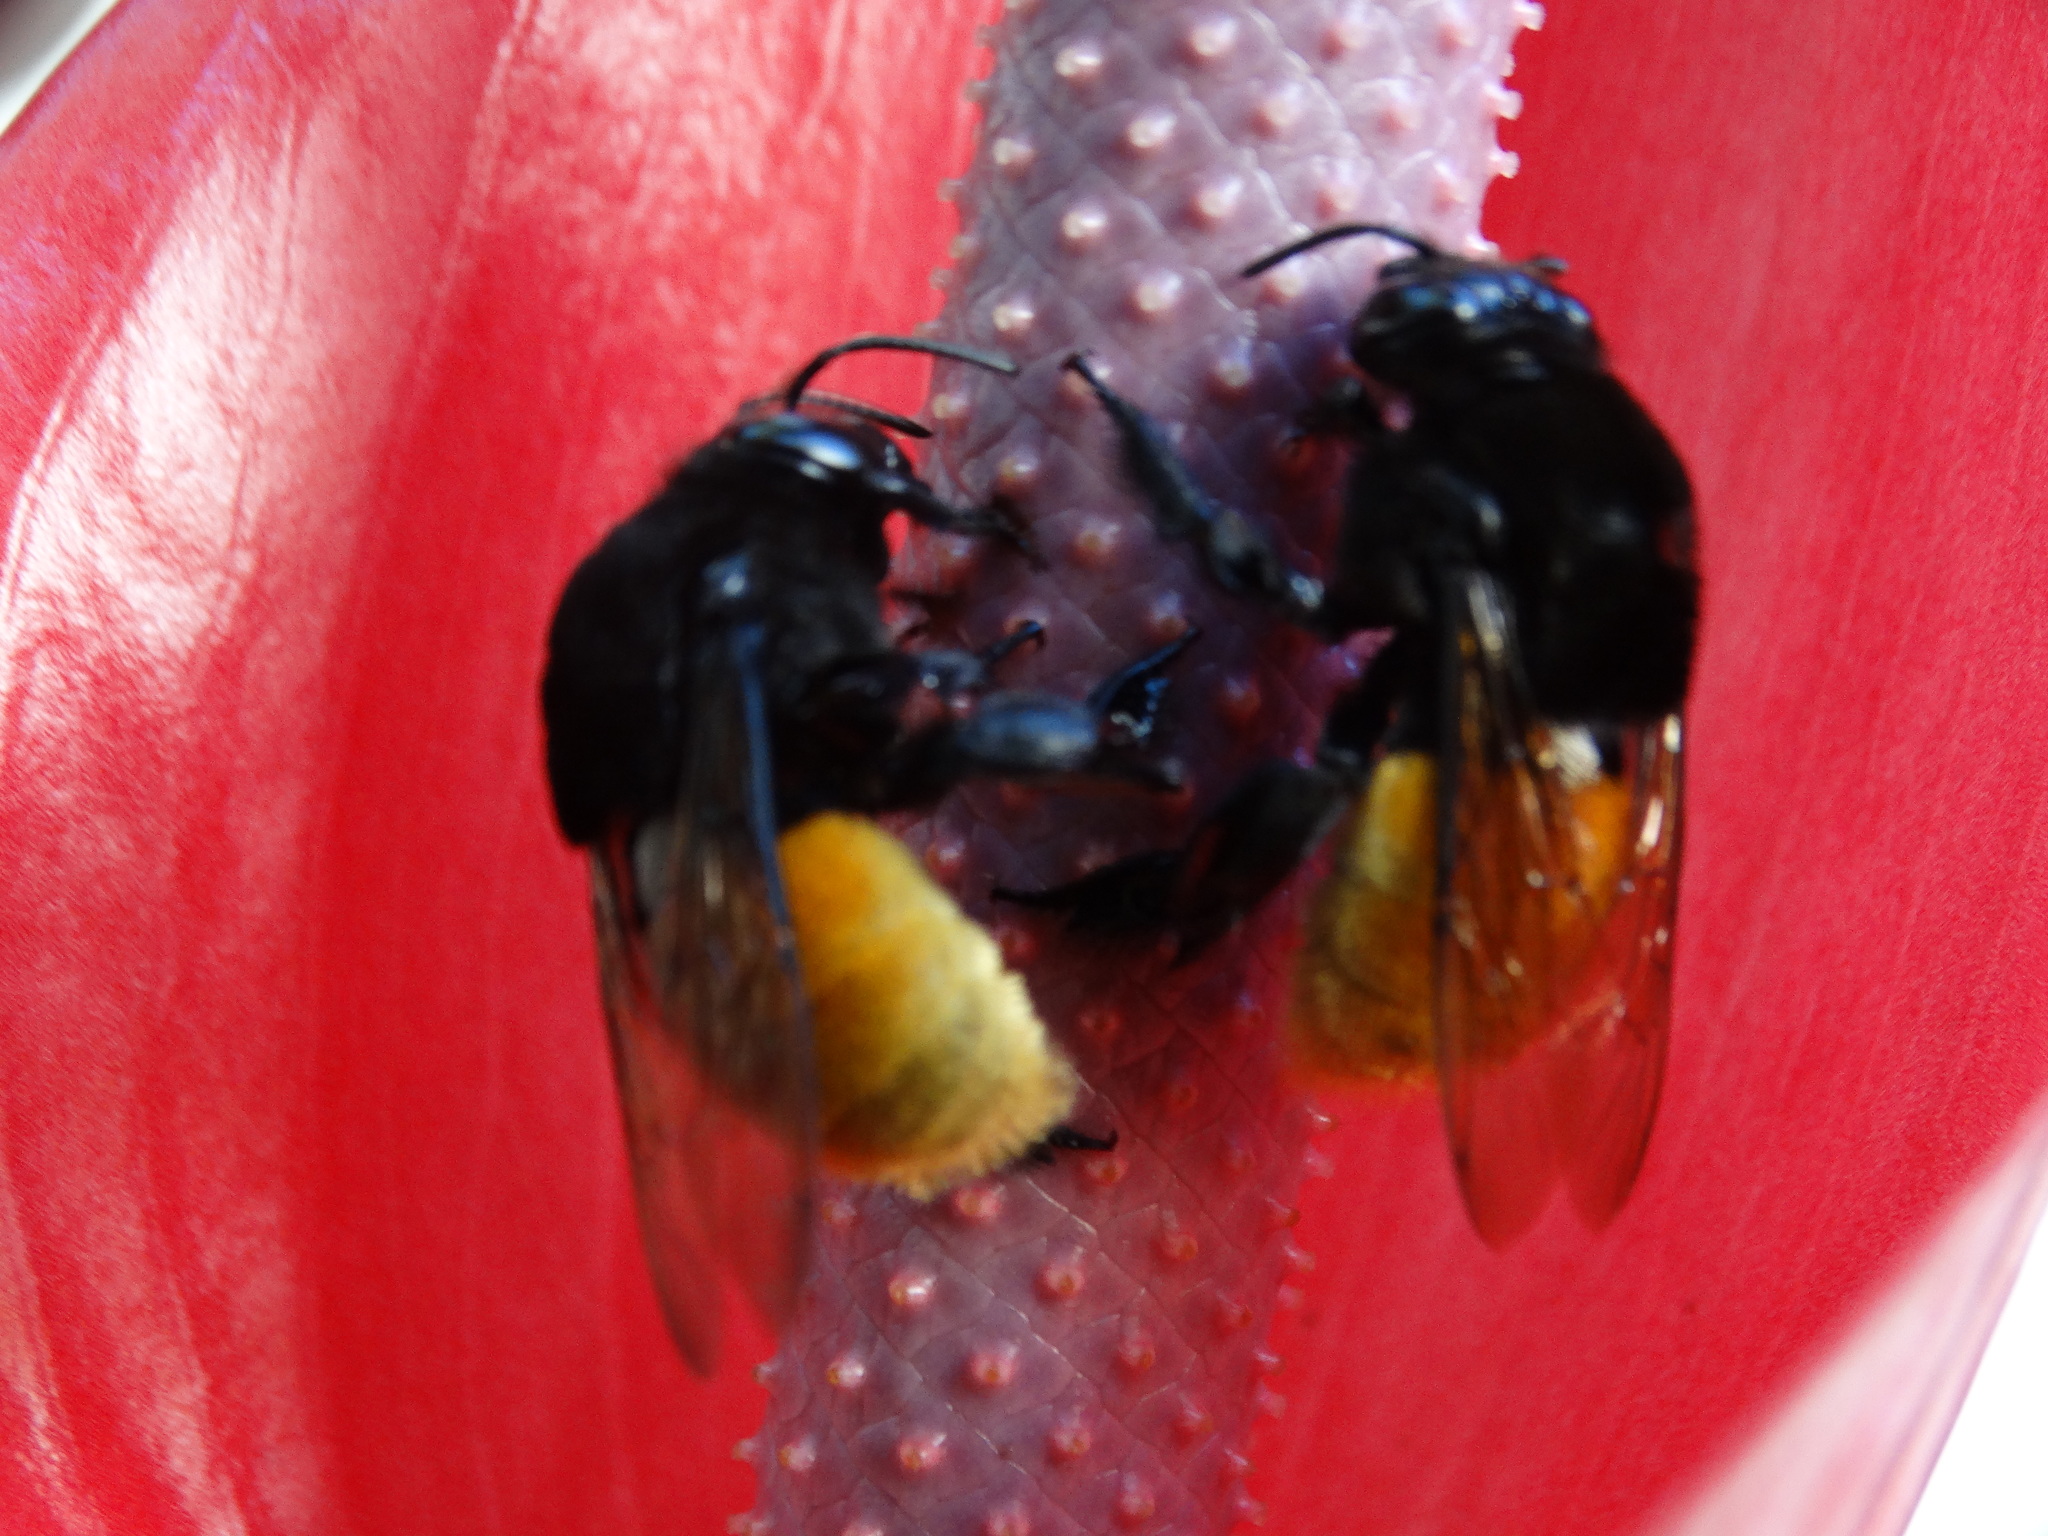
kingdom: Animalia
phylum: Arthropoda
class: Insecta
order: Hymenoptera
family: Apidae
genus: Eulaema
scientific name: Eulaema polychroma
